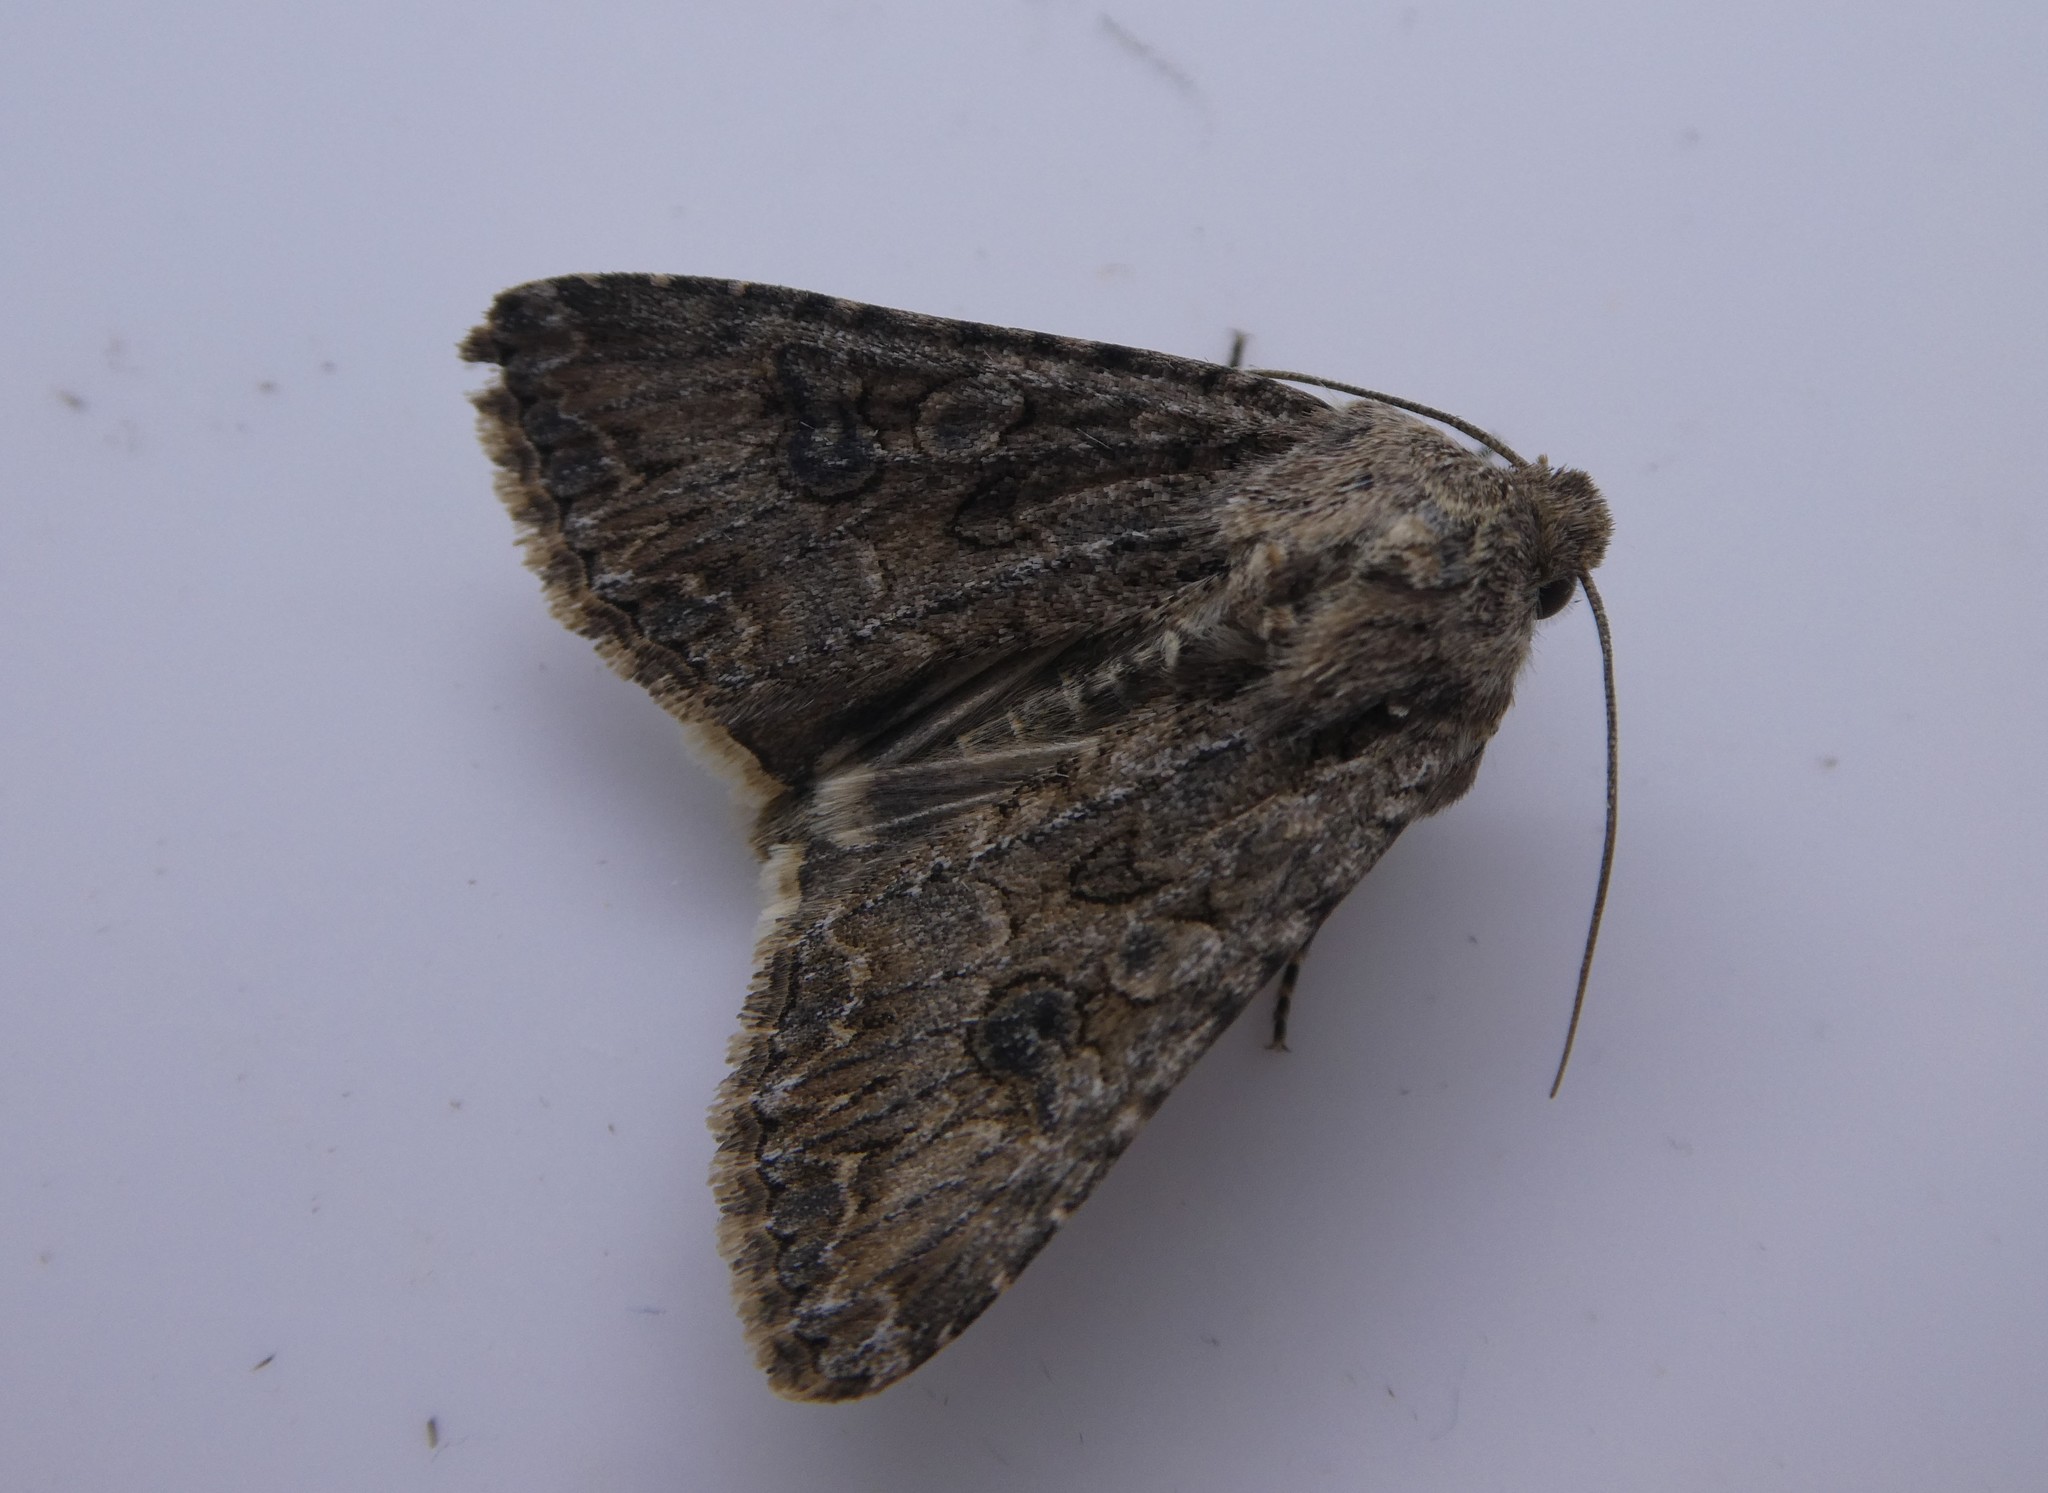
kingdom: Animalia
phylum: Arthropoda
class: Insecta
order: Lepidoptera
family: Noctuidae
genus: Anarta
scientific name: Anarta trifolii
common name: Clover cutworm moth
